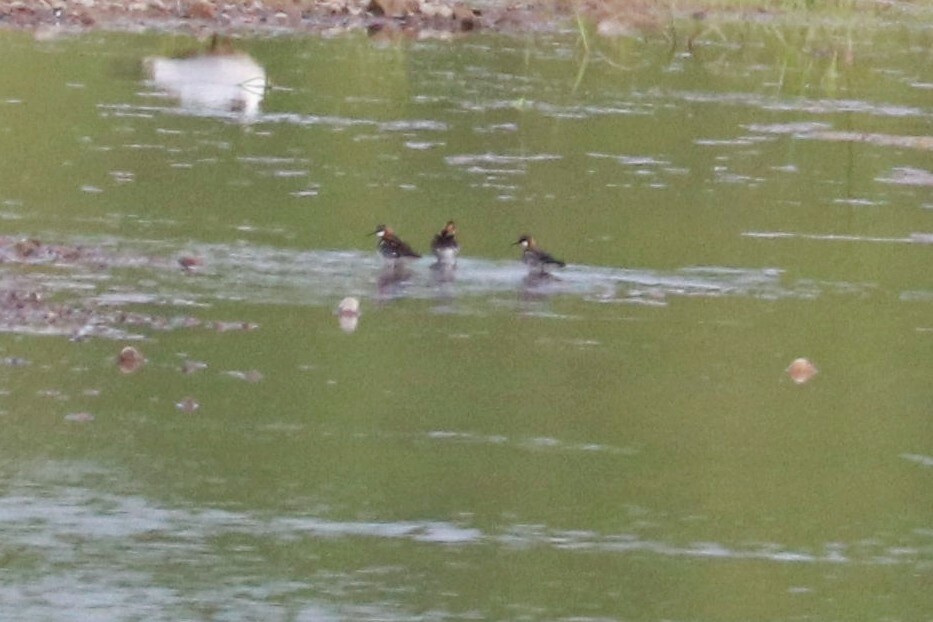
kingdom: Animalia
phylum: Chordata
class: Aves
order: Charadriiformes
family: Scolopacidae
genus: Phalaropus
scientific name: Phalaropus lobatus
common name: Red-necked phalarope
